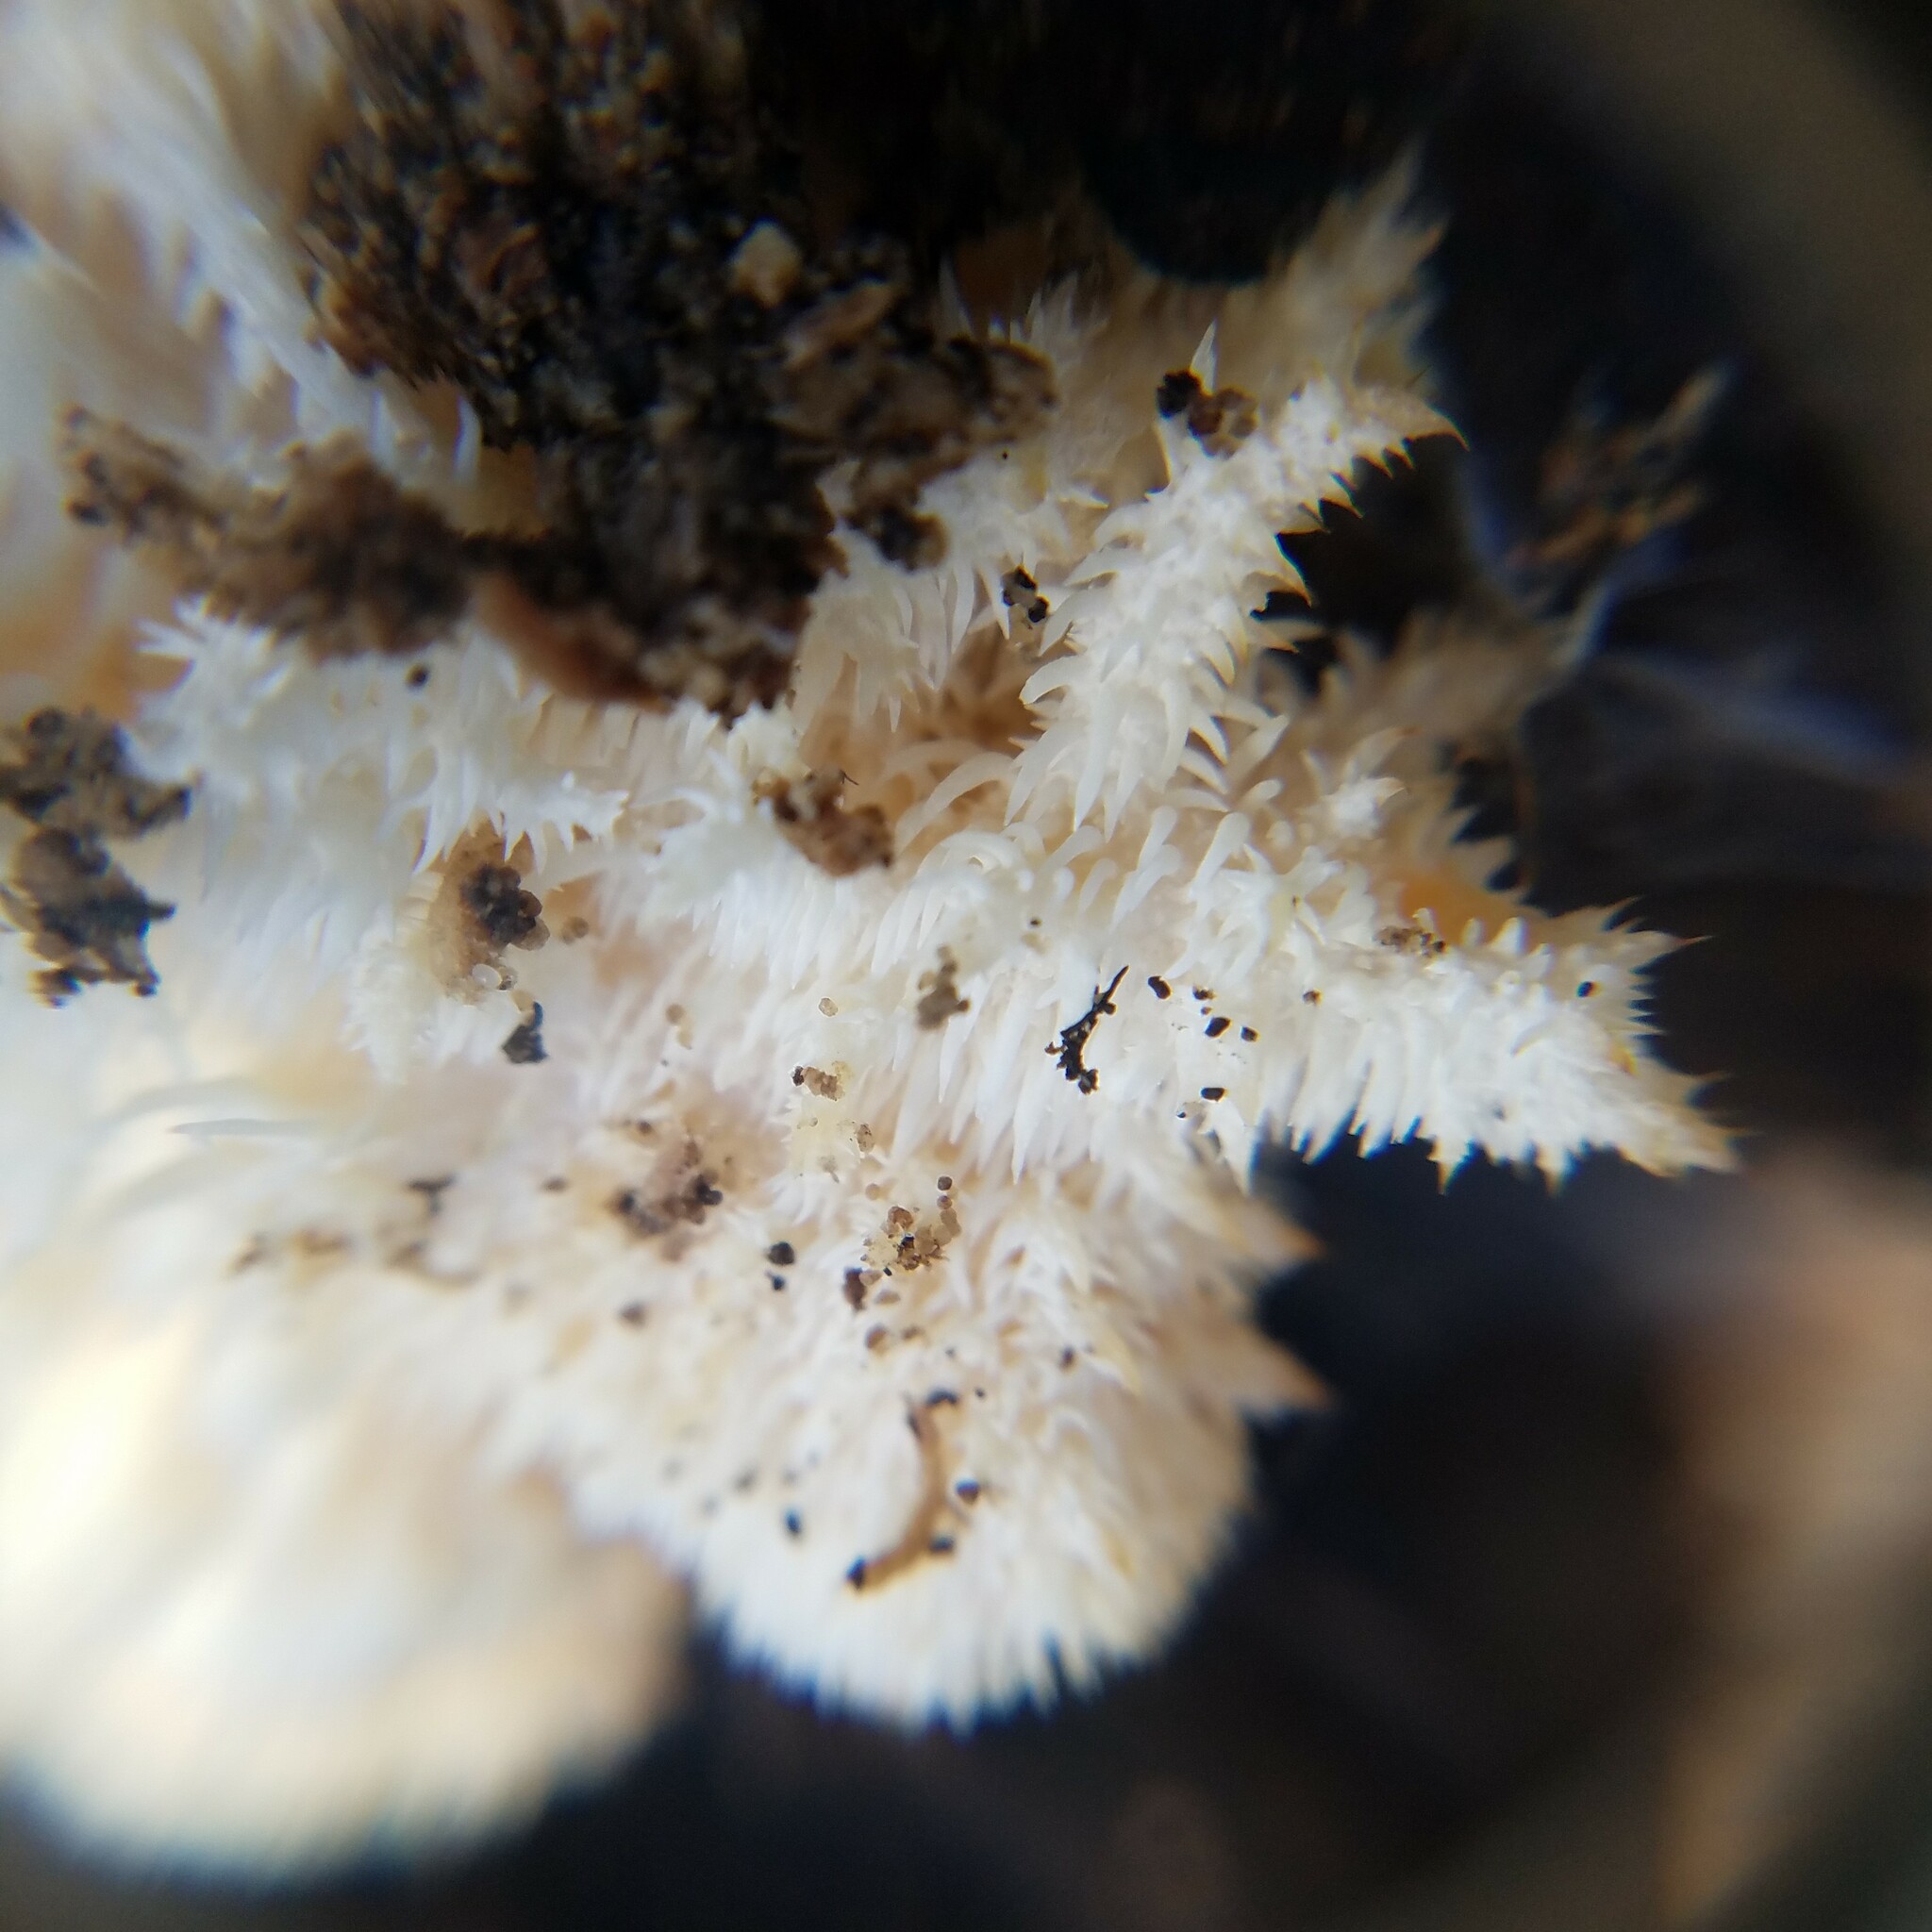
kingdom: Fungi
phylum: Basidiomycota
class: Agaricomycetes
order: Russulales
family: Hericiaceae
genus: Hericium
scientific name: Hericium coralloides
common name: Coral tooth
